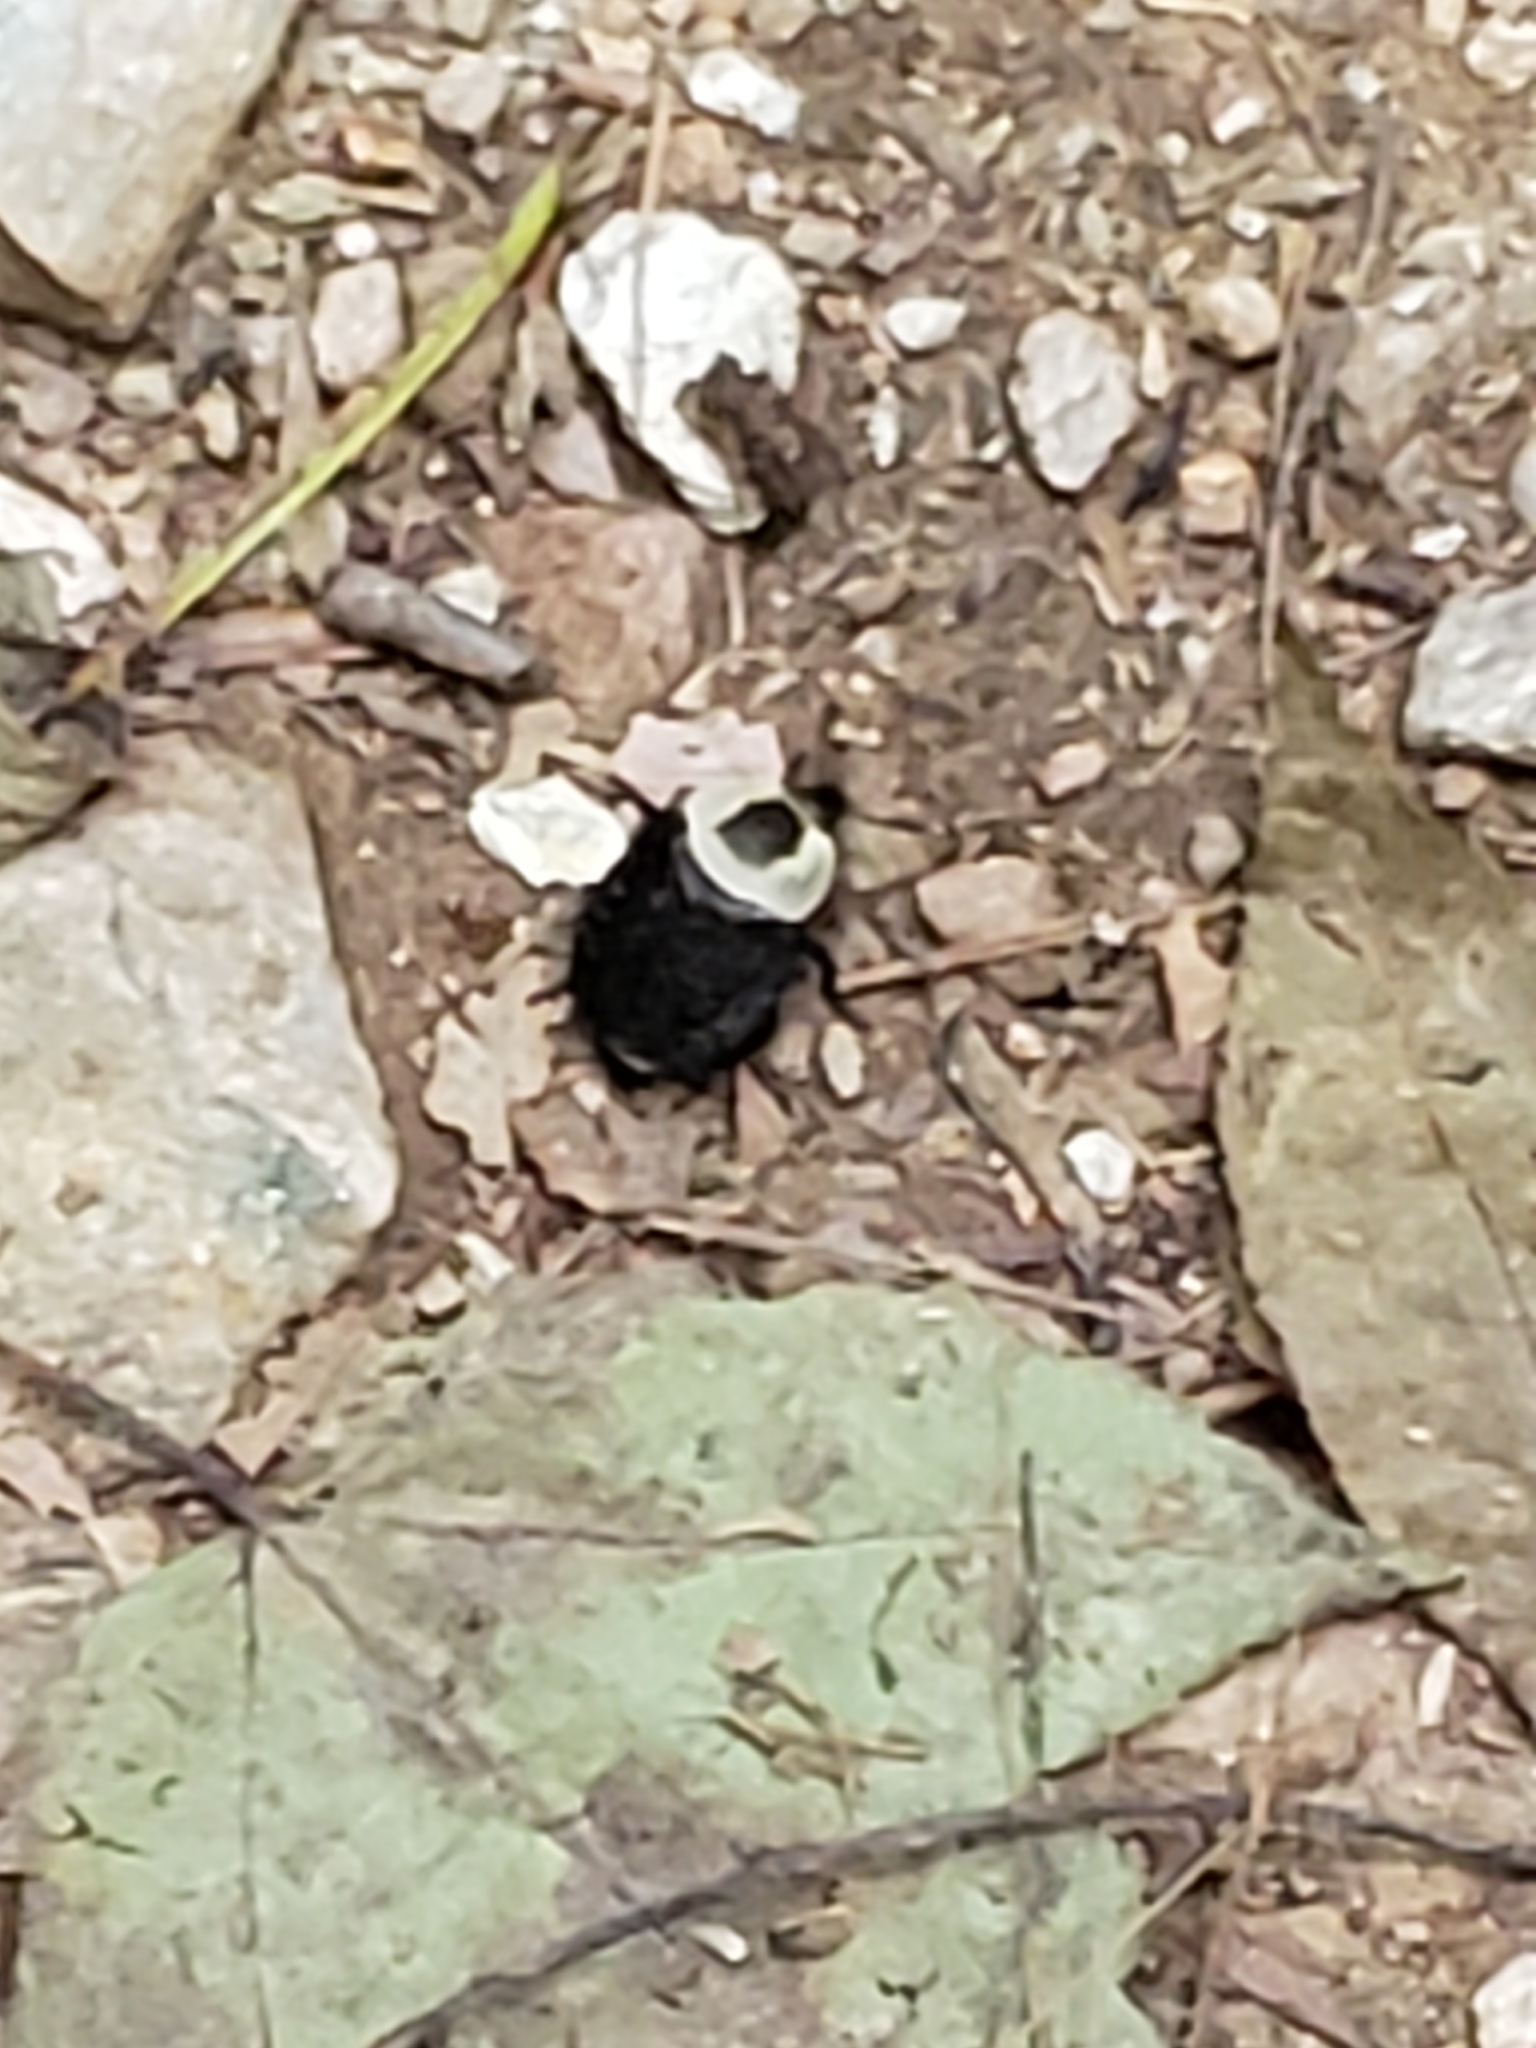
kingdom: Animalia
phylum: Arthropoda
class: Insecta
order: Coleoptera
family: Staphylinidae
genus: Necrophila
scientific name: Necrophila americana
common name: American carrion beetle
